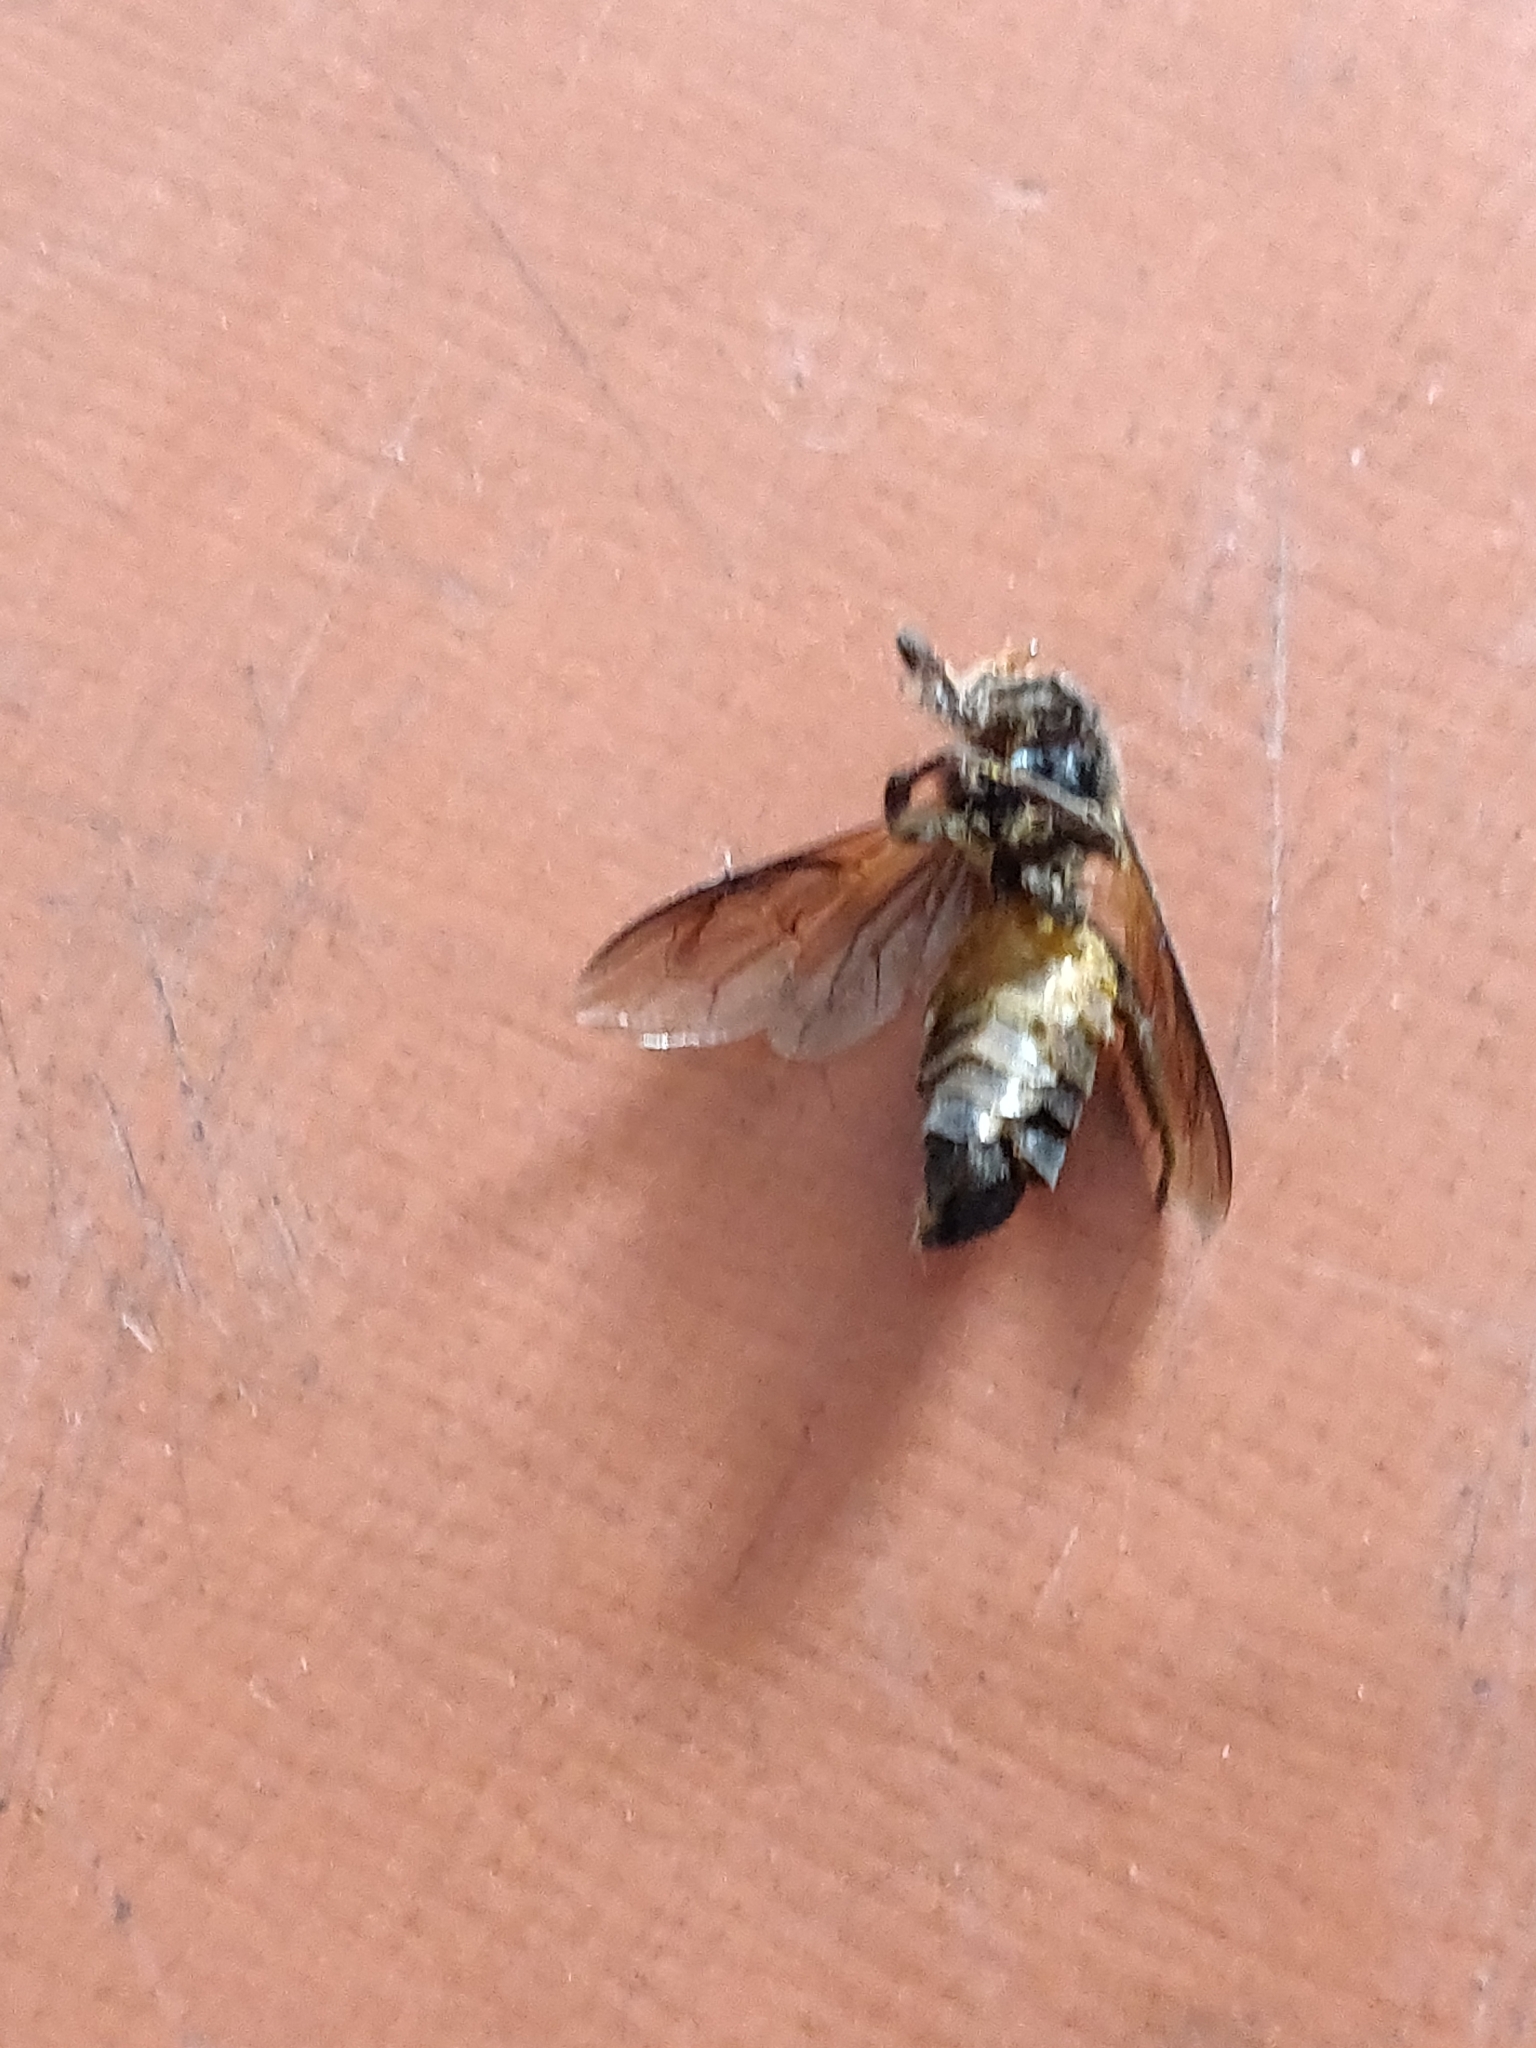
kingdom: Animalia
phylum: Arthropoda
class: Insecta
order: Hymenoptera
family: Apidae
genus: Apis
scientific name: Apis dorsata
